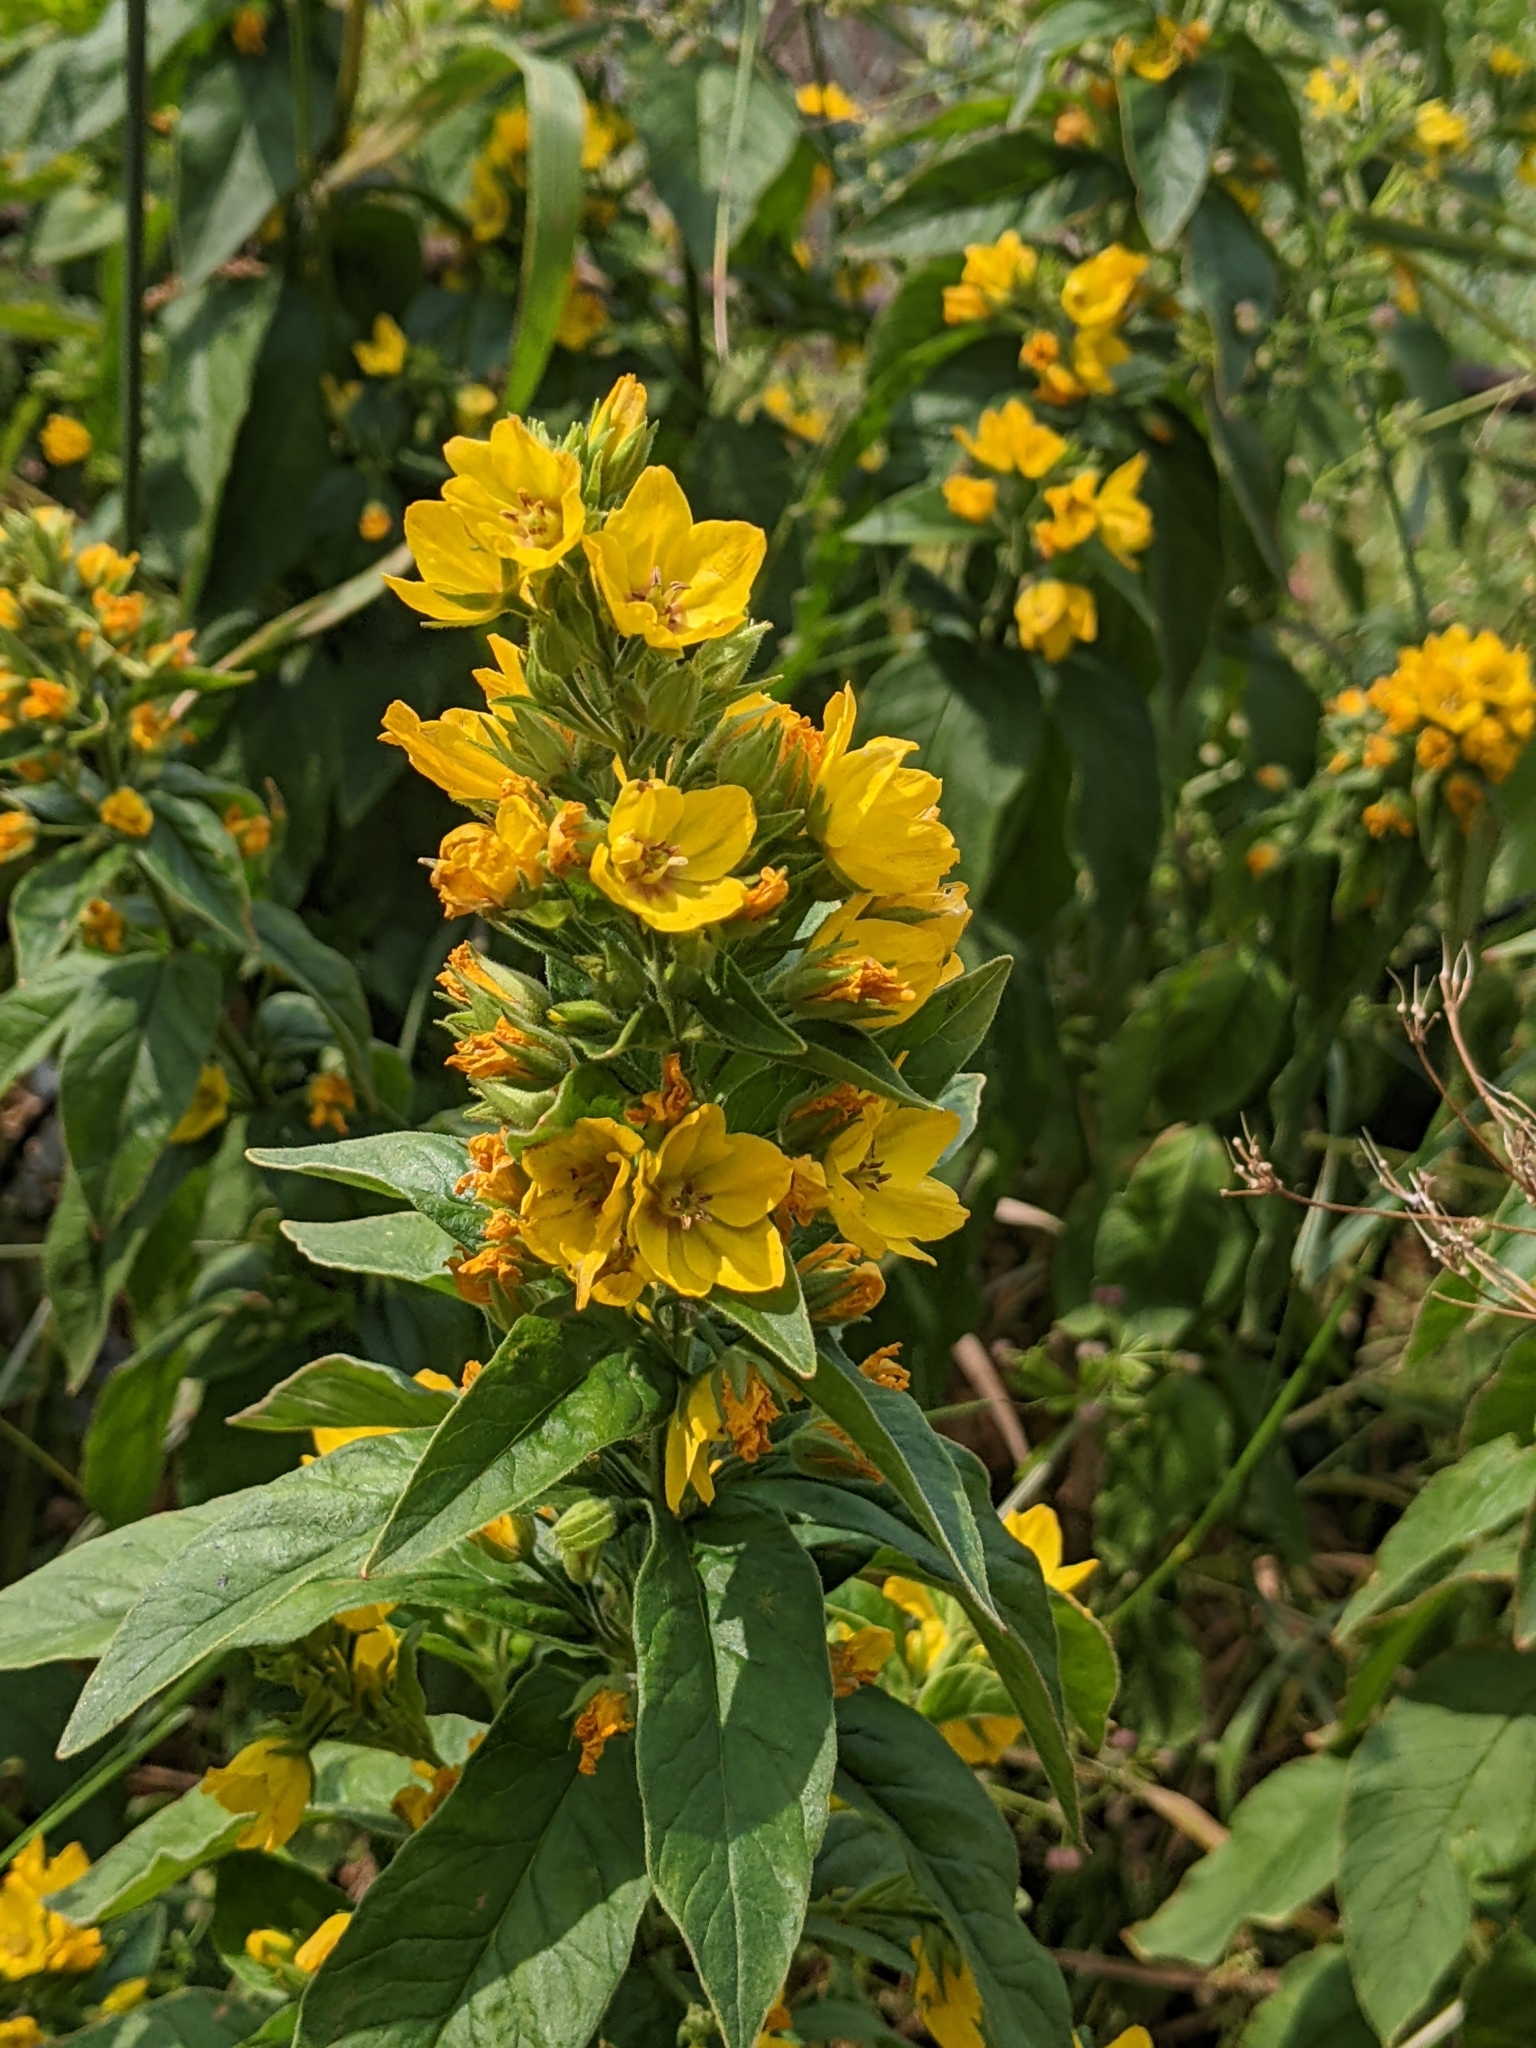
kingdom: Plantae
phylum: Tracheophyta
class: Magnoliopsida
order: Ericales
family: Primulaceae
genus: Lysimachia
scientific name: Lysimachia punctata
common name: Dotted loosestrife
